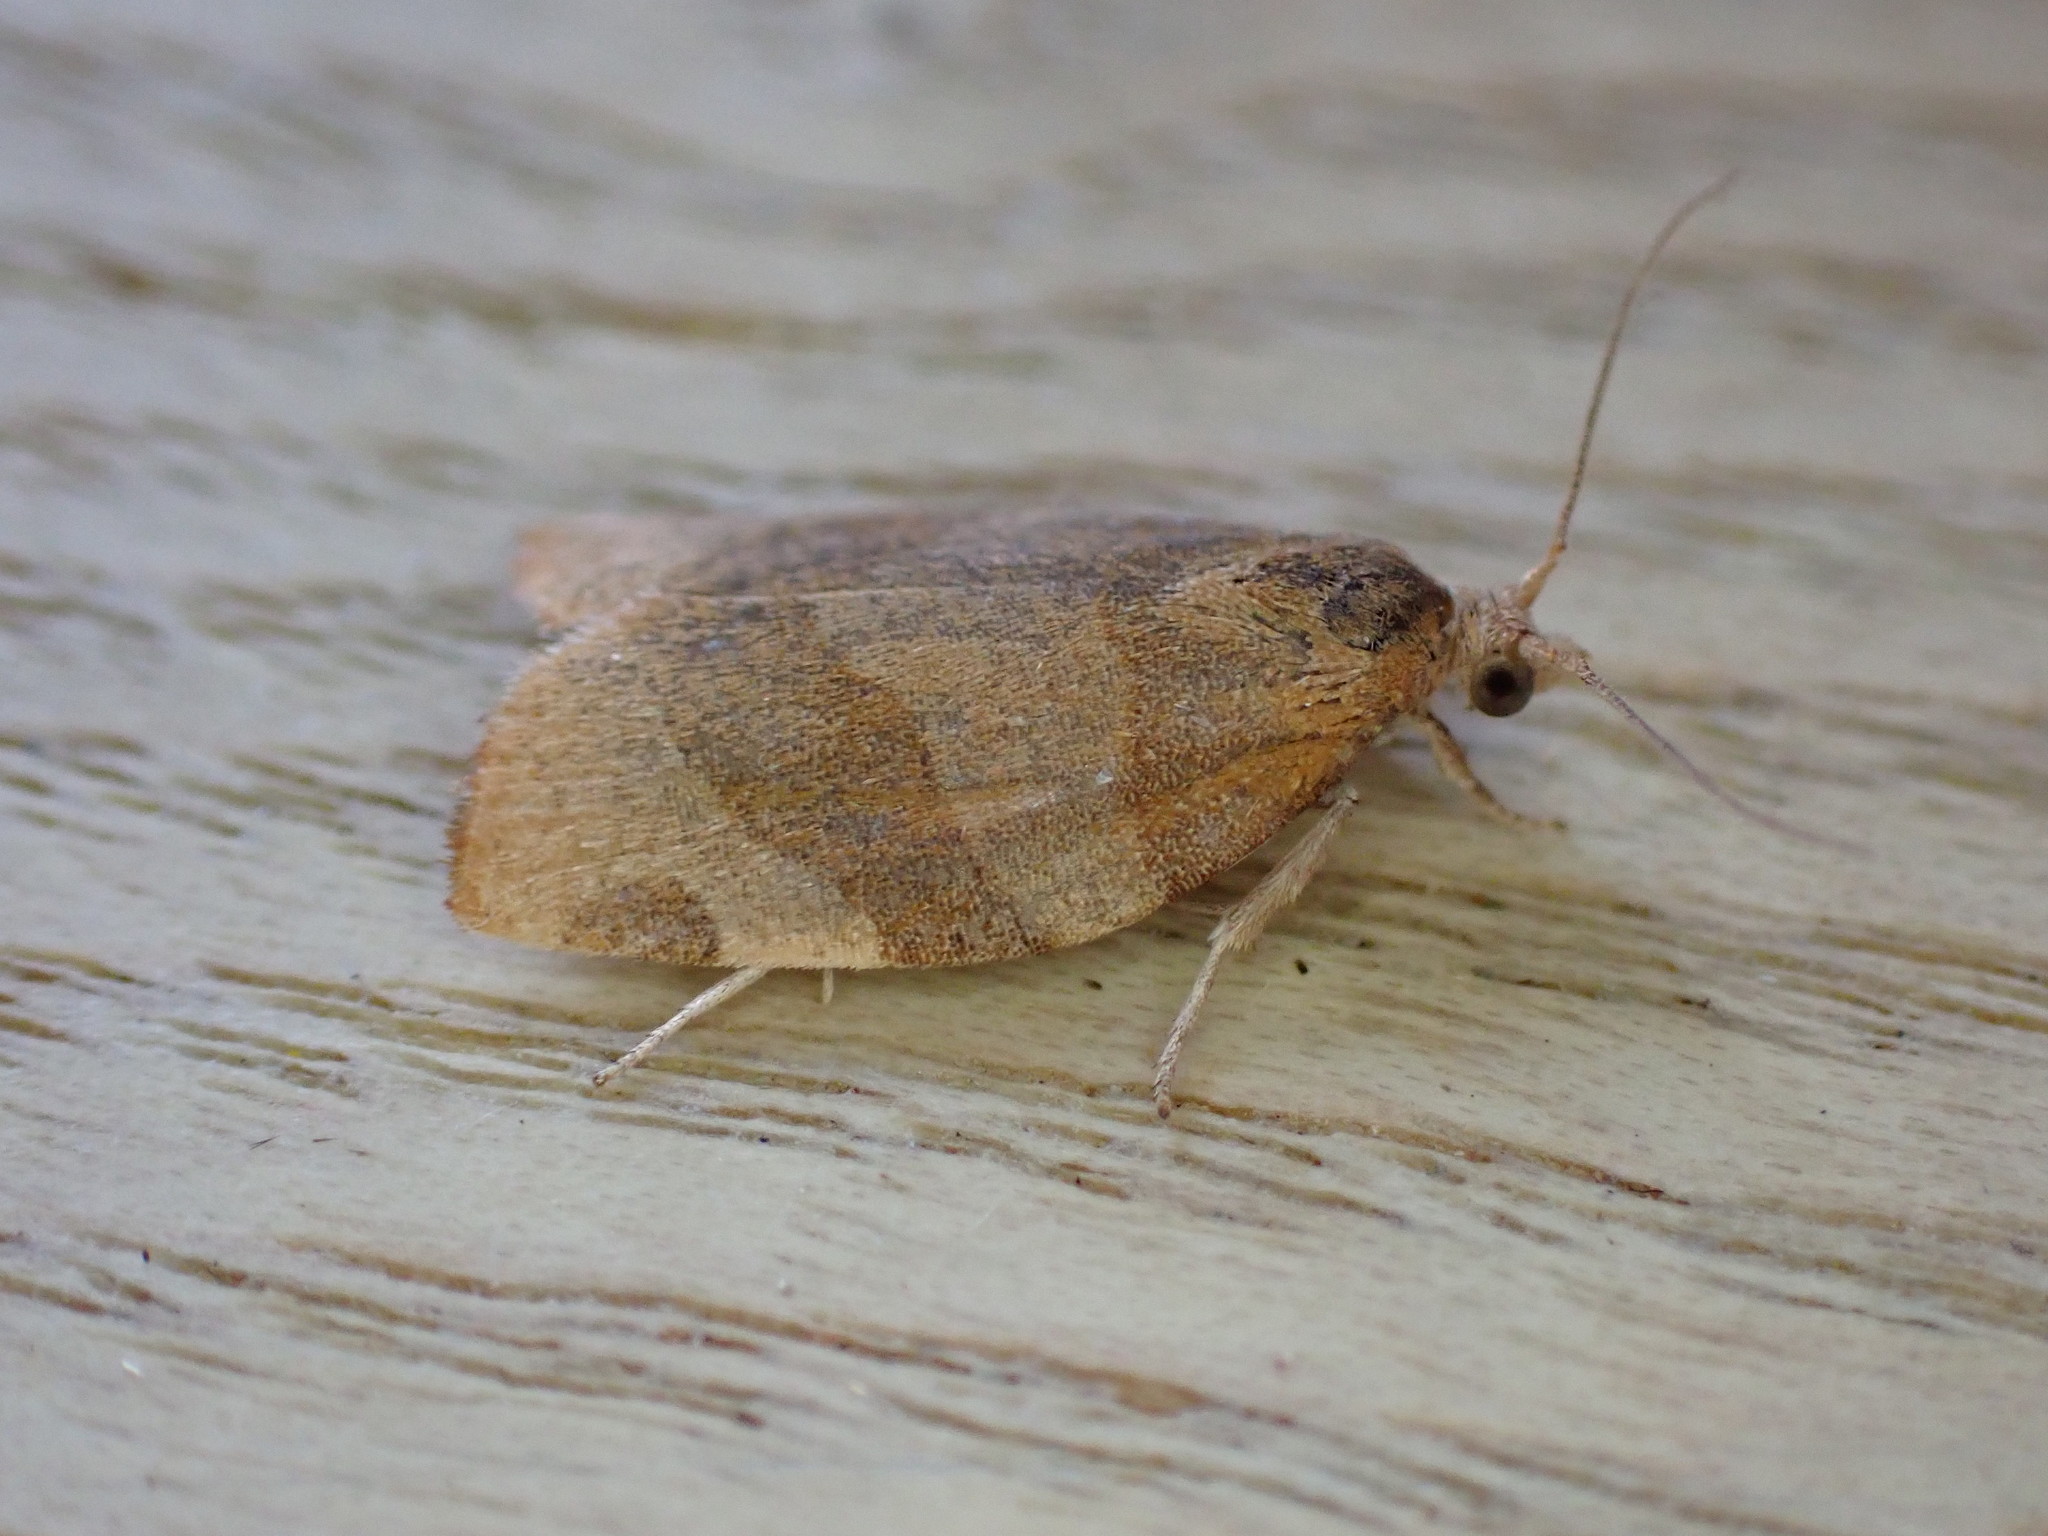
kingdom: Animalia
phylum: Arthropoda
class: Insecta
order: Lepidoptera
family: Tortricidae
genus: Pandemis
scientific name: Pandemis cerasana
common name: Barred fruit-tree tortrix
